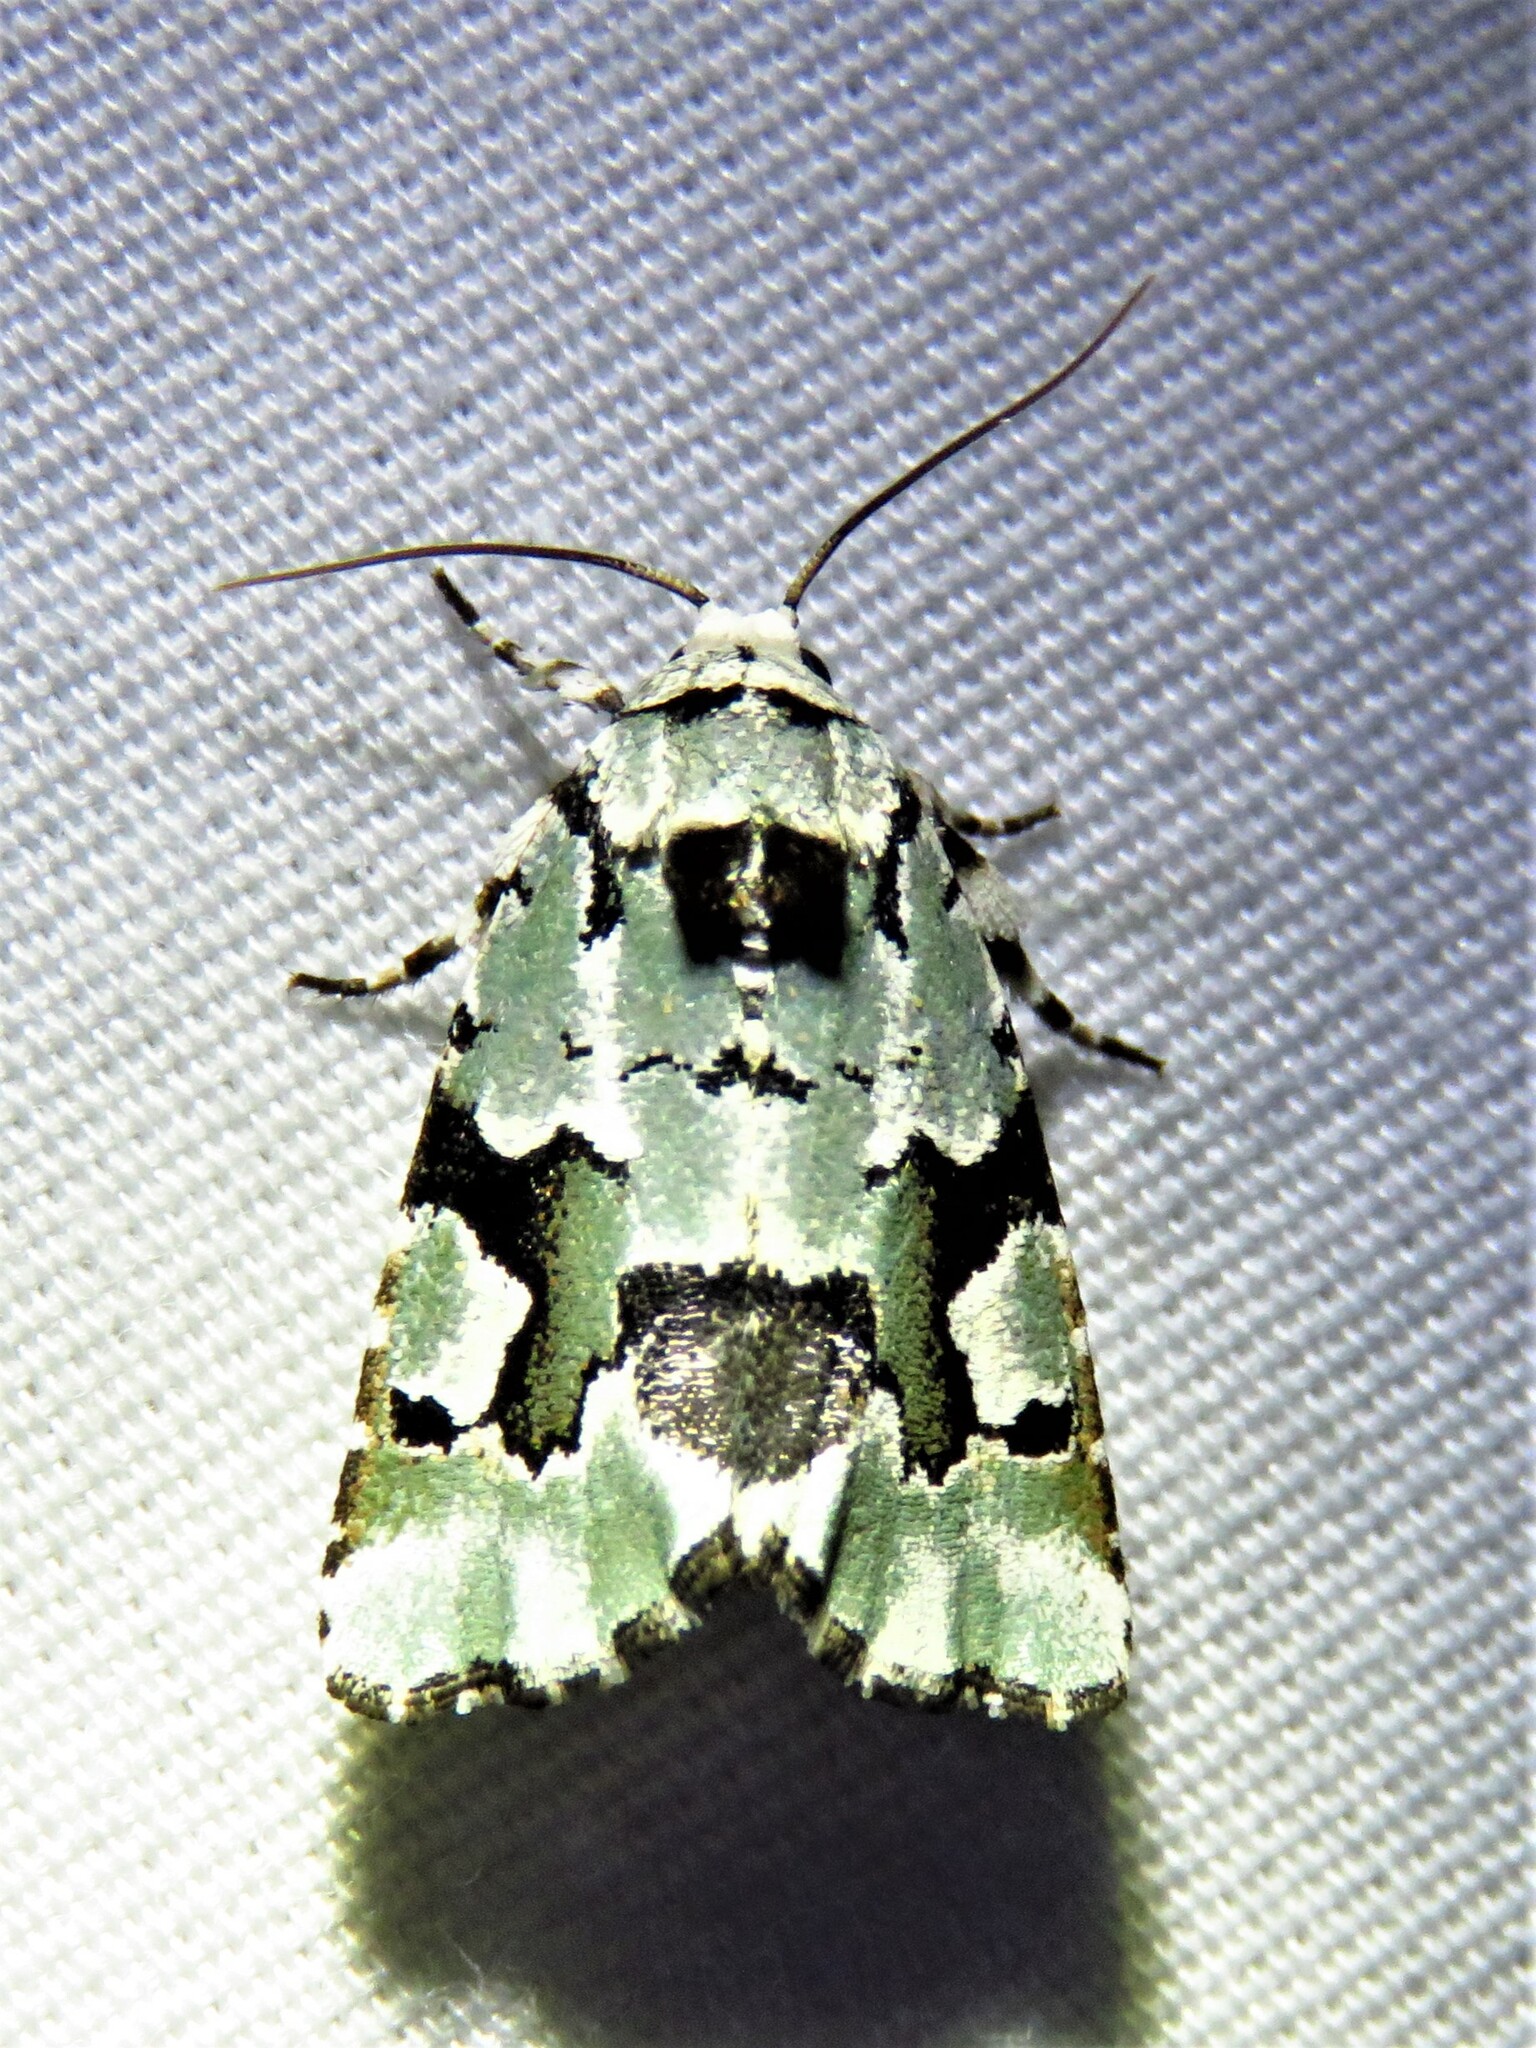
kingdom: Animalia
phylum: Arthropoda
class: Insecta
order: Lepidoptera
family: Noctuidae
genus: Emarginea
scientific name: Emarginea percara
